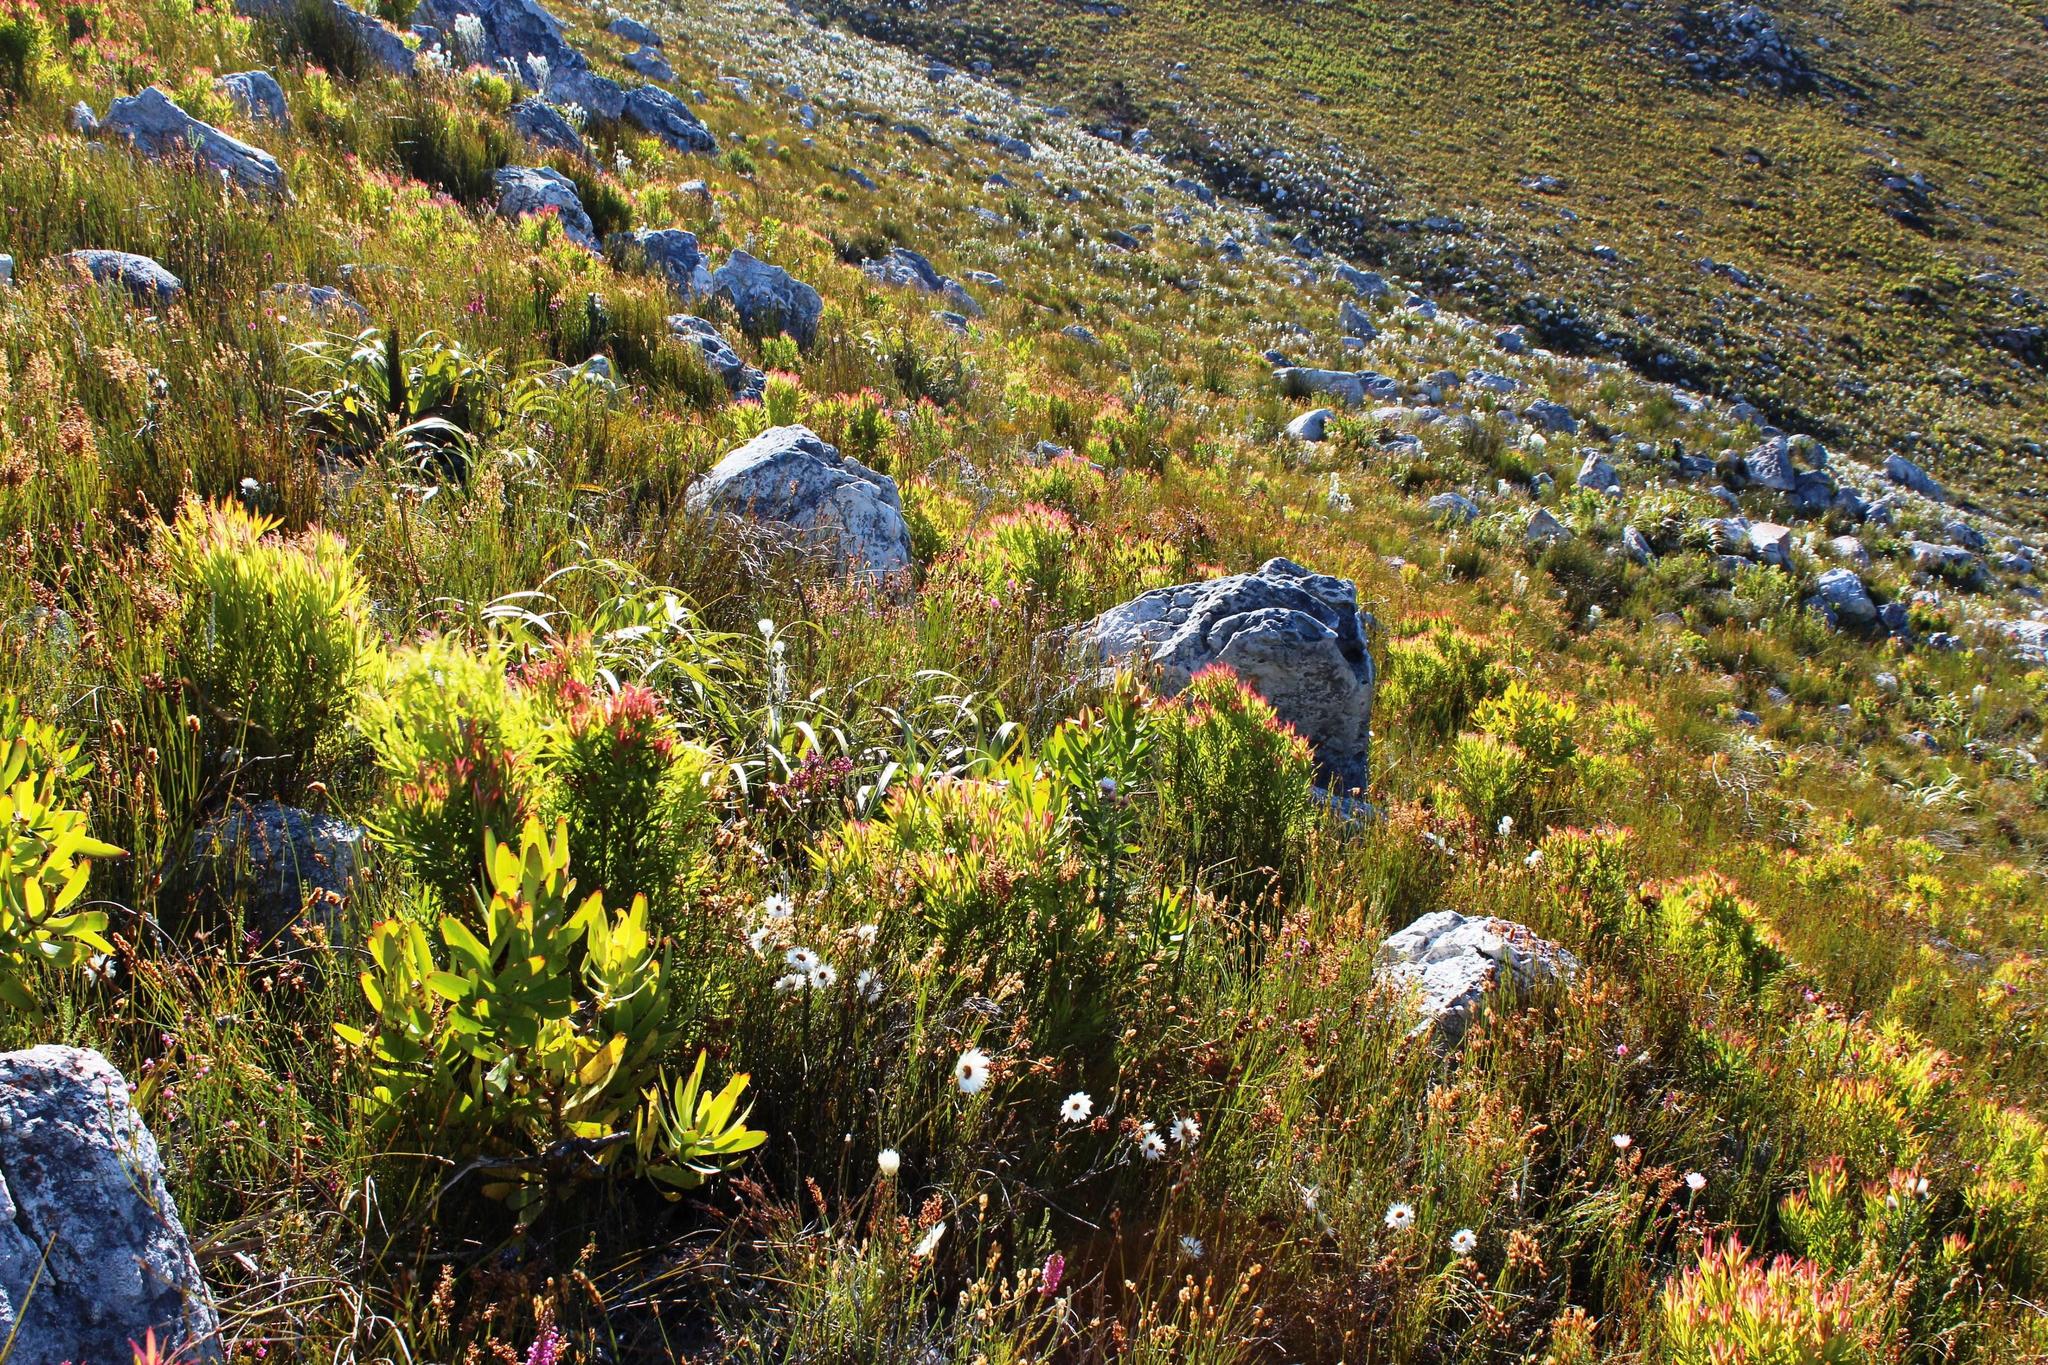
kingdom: Plantae
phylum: Tracheophyta
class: Magnoliopsida
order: Proteales
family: Proteaceae
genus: Leucadendron
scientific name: Leucadendron xanthoconus
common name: Sickle-leaf conebush
